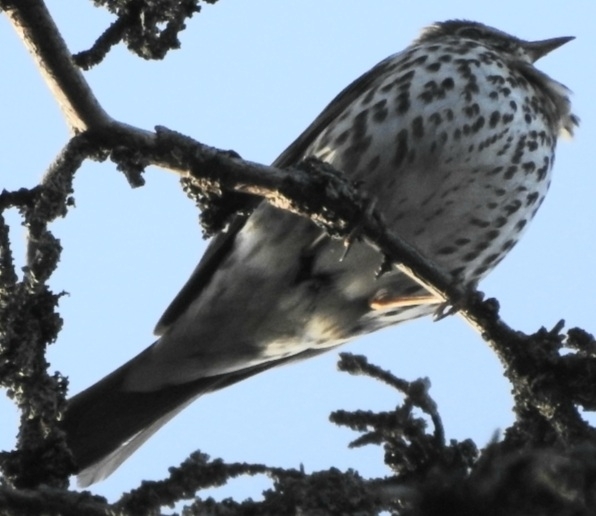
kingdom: Animalia
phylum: Chordata
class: Aves
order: Passeriformes
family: Turdidae
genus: Turdus
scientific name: Turdus philomelos
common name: Song thrush
